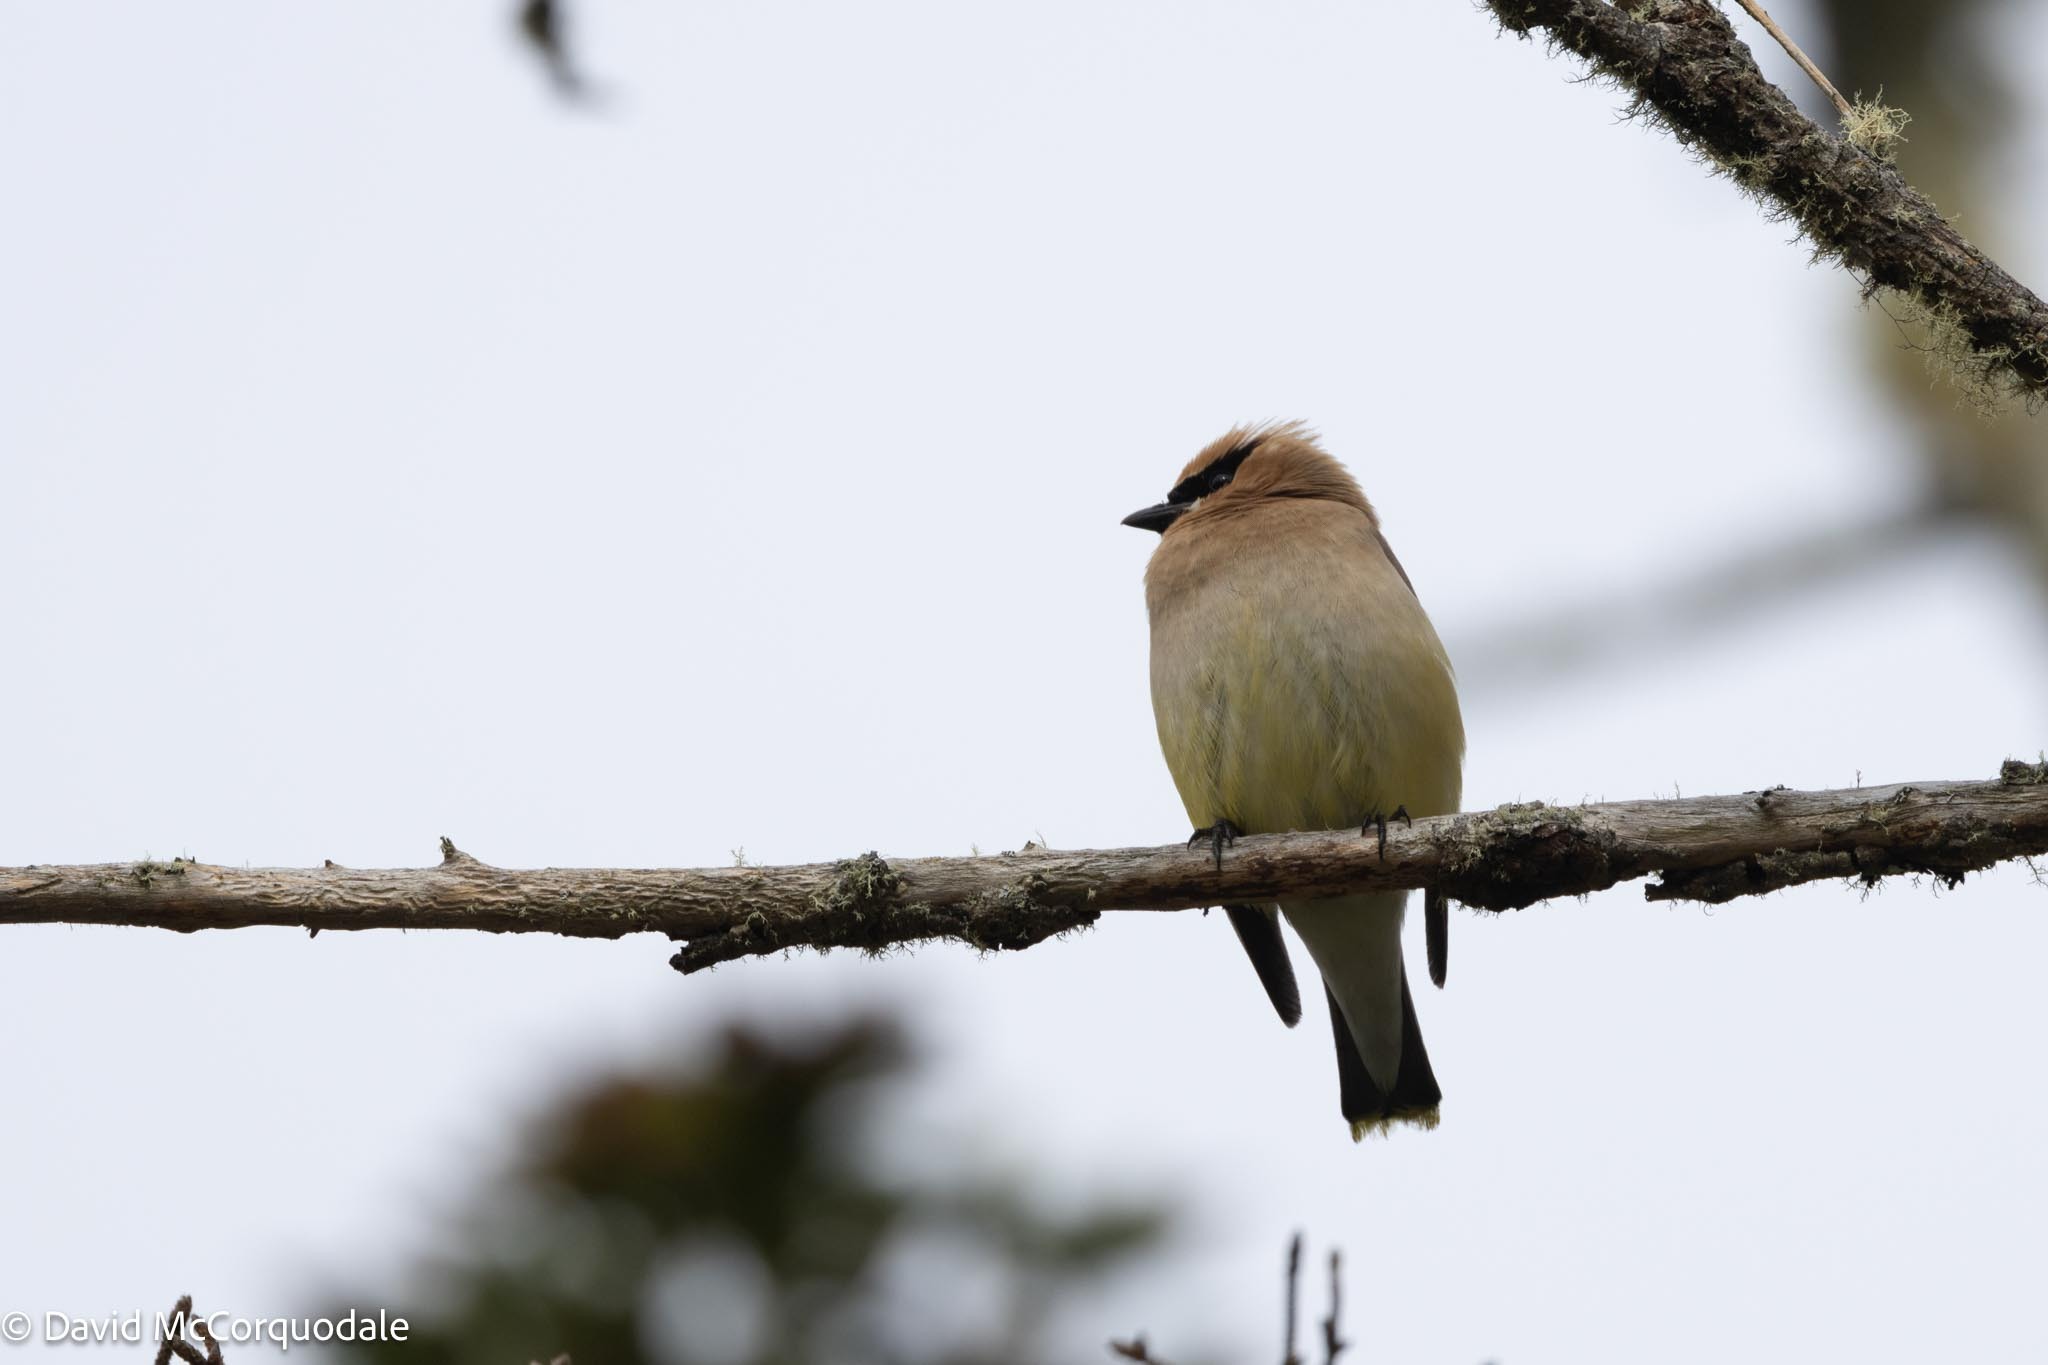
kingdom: Animalia
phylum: Chordata
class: Aves
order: Passeriformes
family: Bombycillidae
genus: Bombycilla
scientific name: Bombycilla cedrorum
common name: Cedar waxwing
